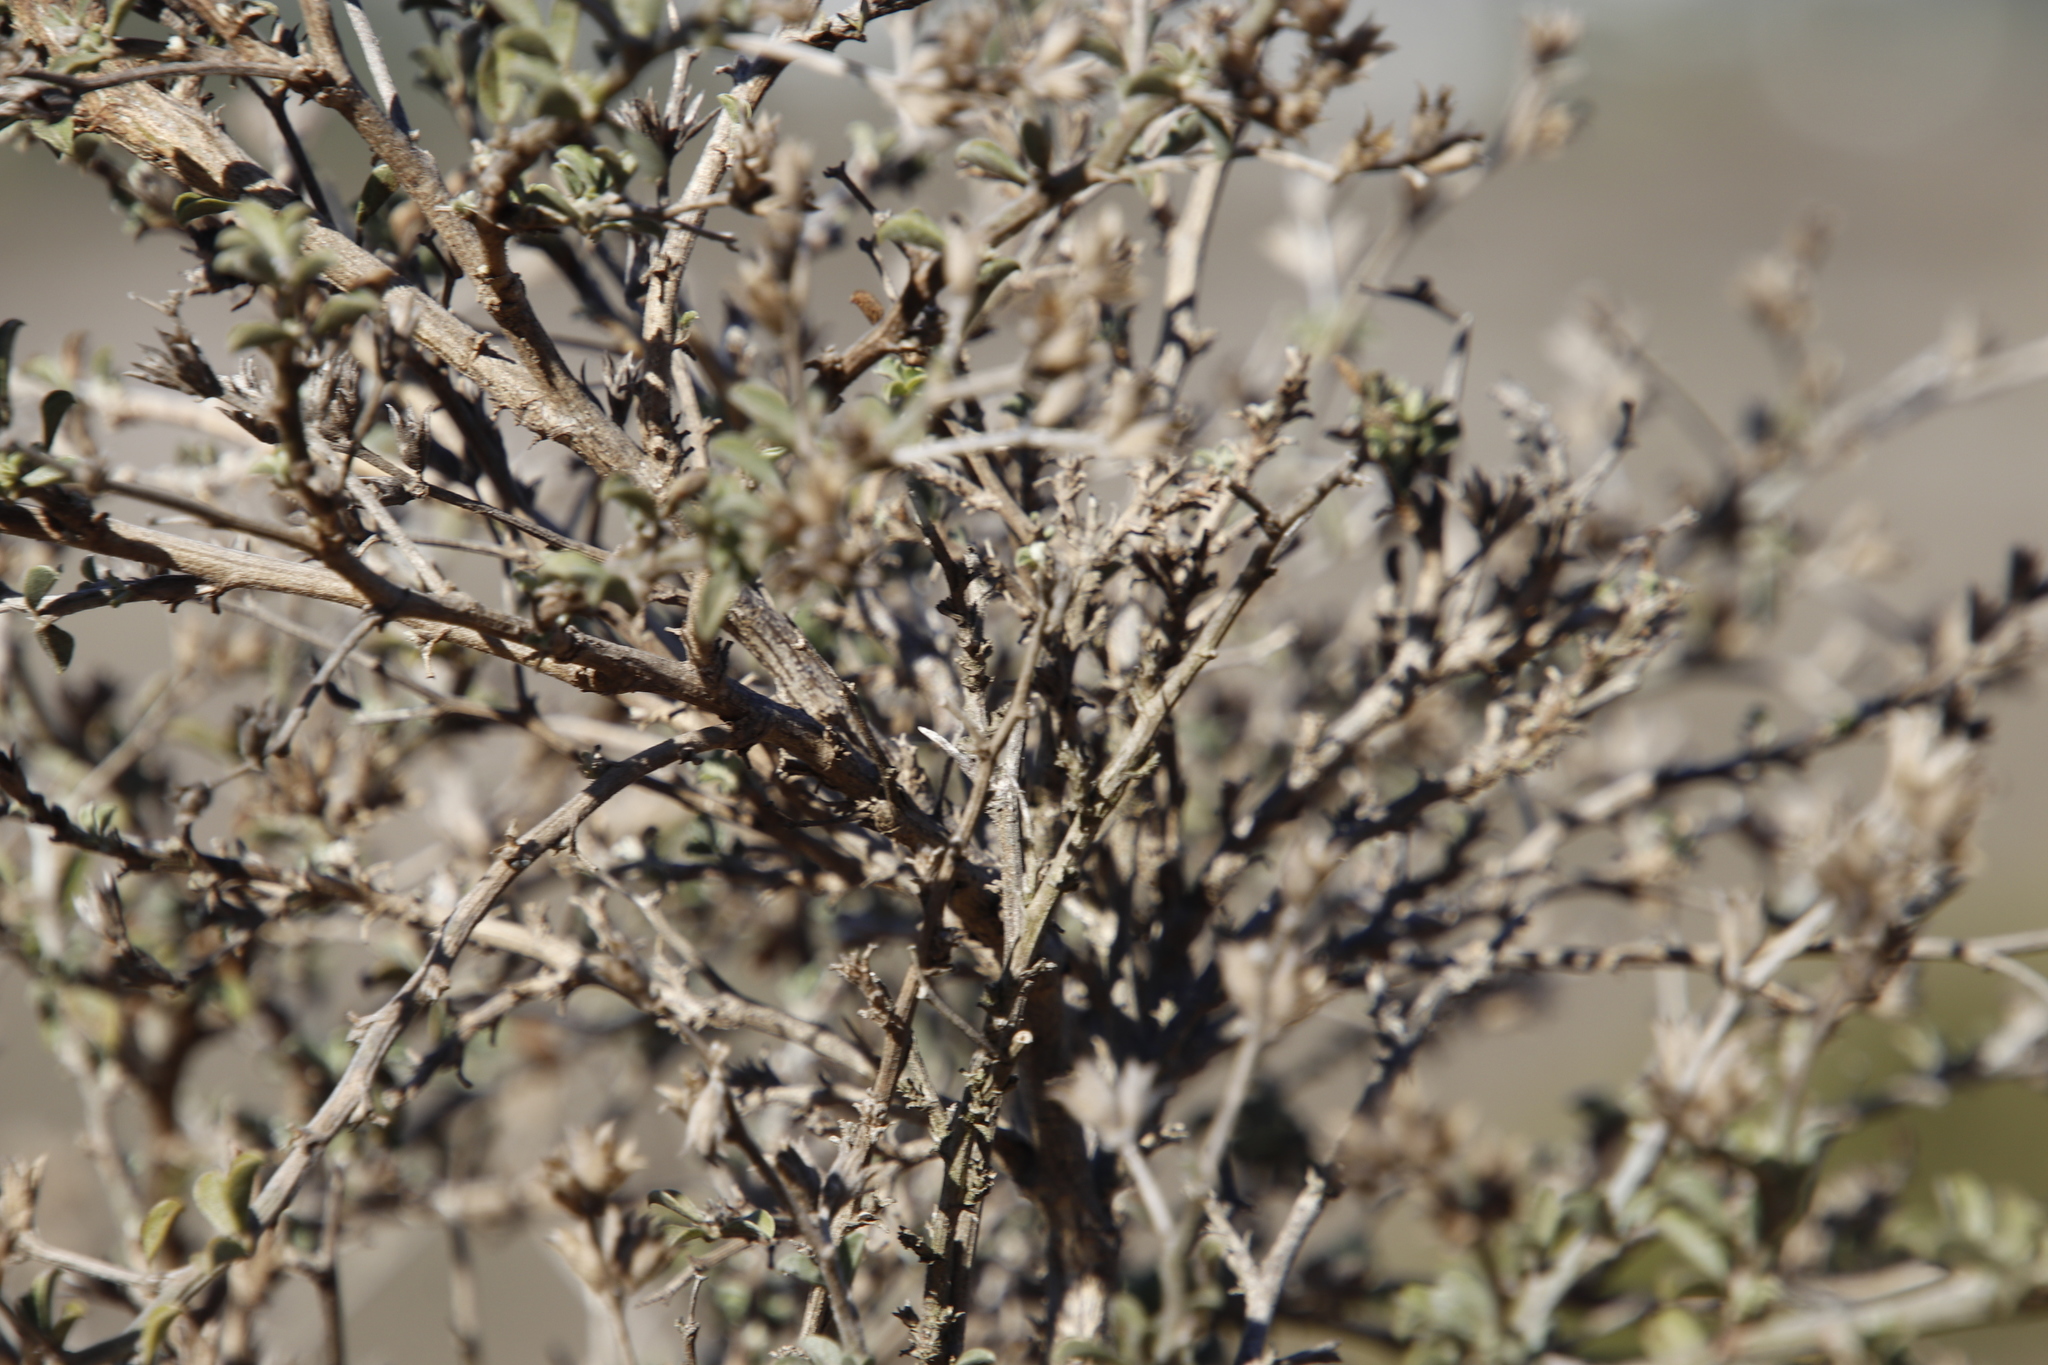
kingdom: Plantae
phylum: Tracheophyta
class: Magnoliopsida
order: Fabales
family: Fabaceae
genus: Psoralea
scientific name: Psoralea hirta
